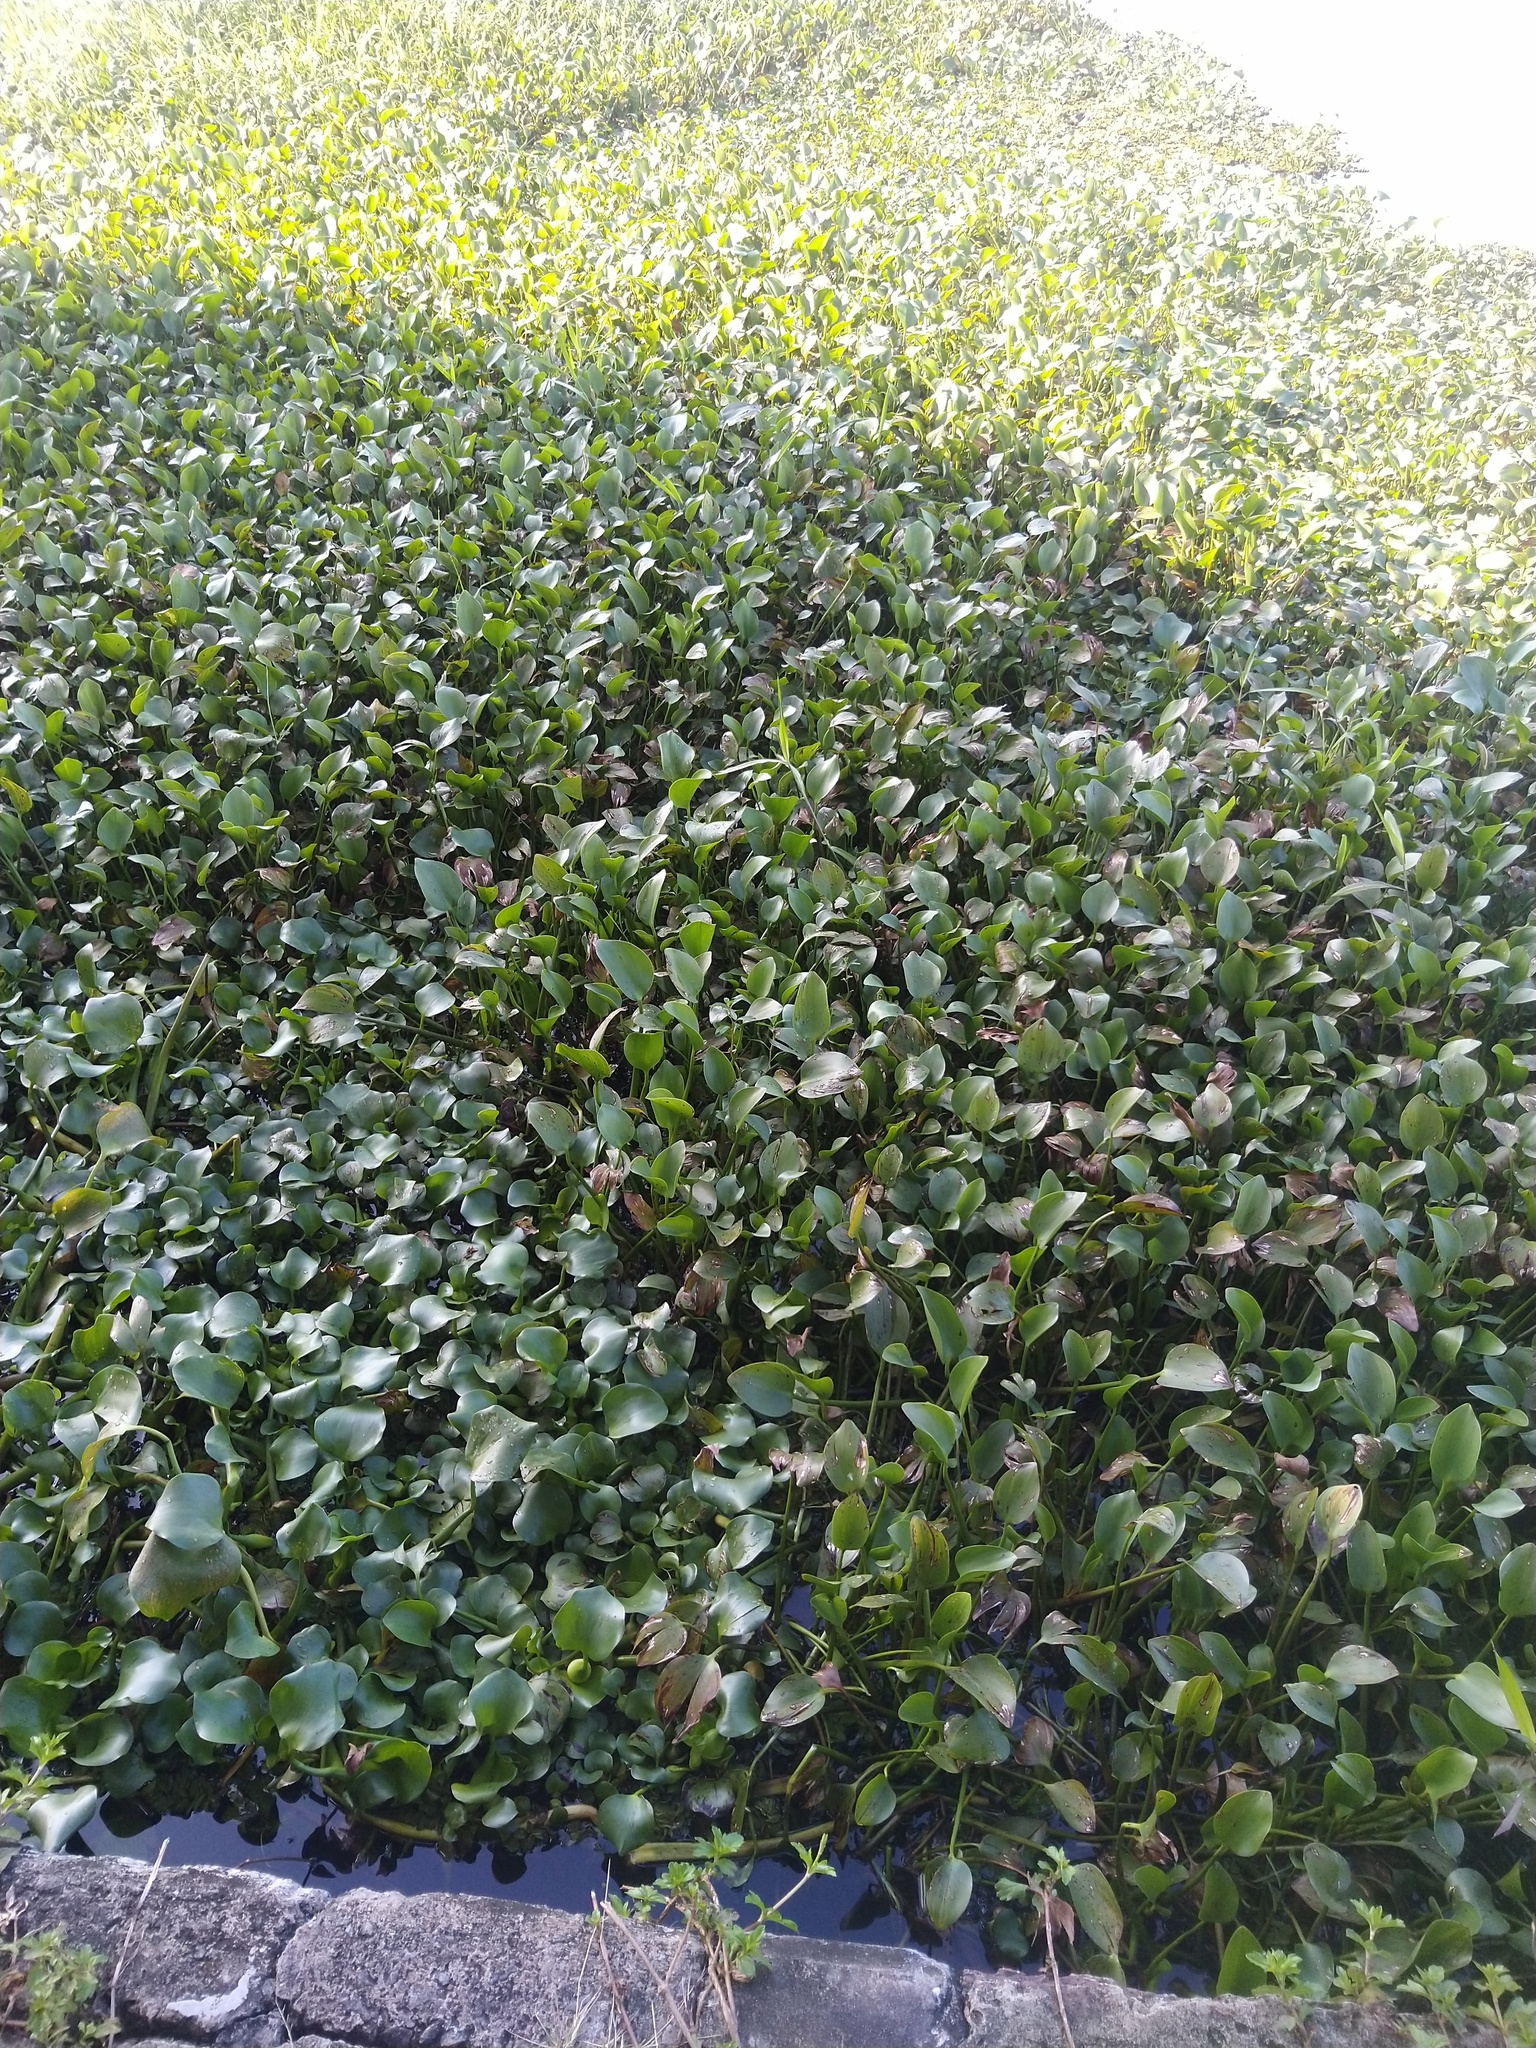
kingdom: Plantae
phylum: Tracheophyta
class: Liliopsida
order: Commelinales
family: Pontederiaceae
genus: Pontederia
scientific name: Pontederia crassipes
